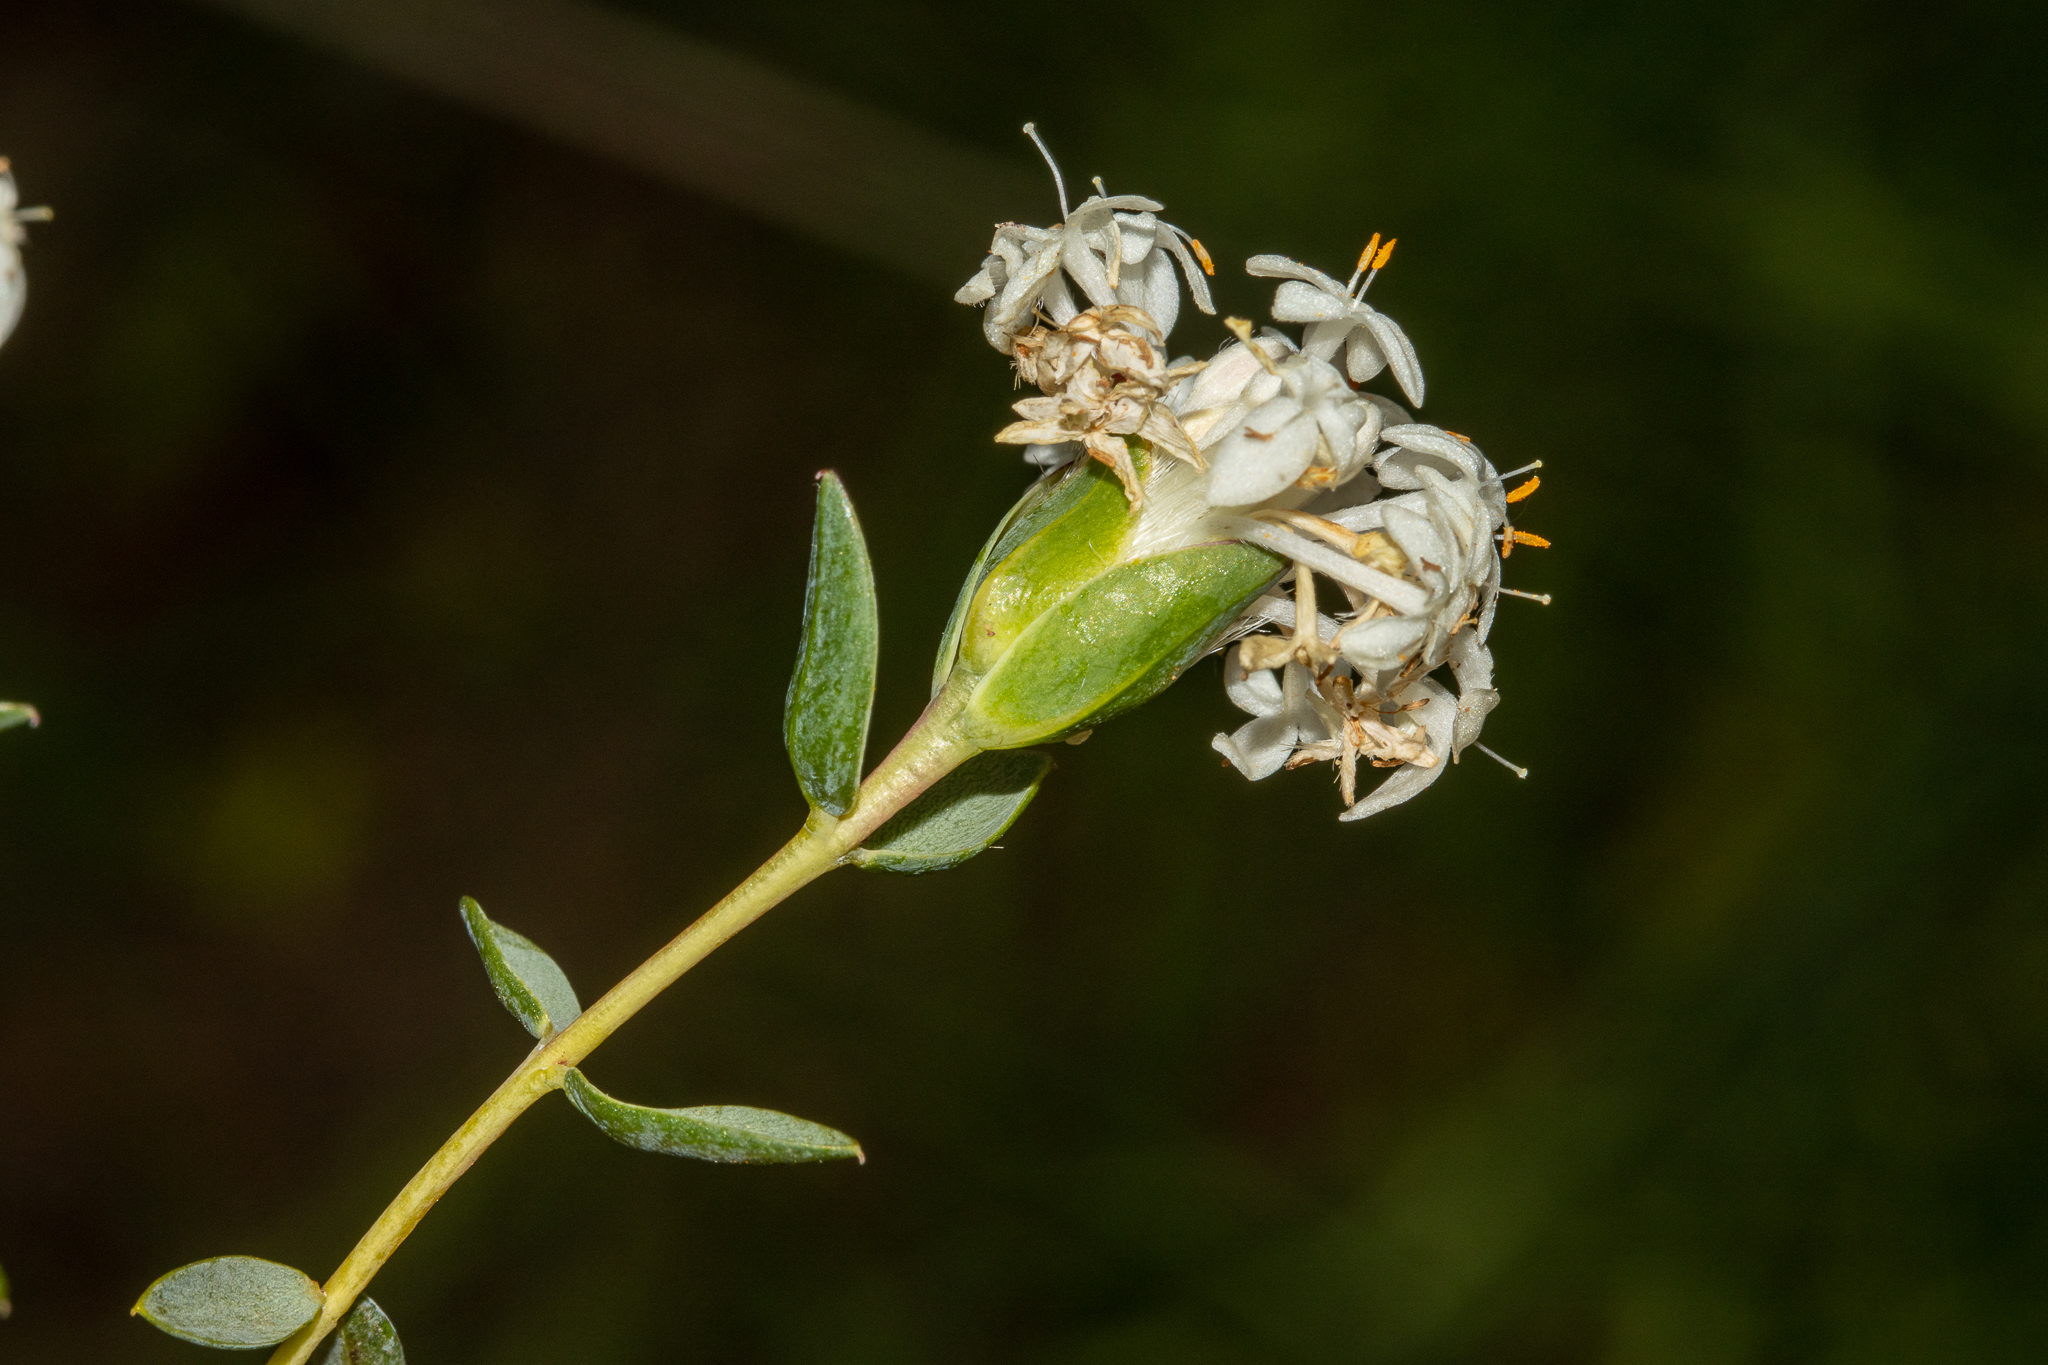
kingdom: Plantae
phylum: Tracheophyta
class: Magnoliopsida
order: Malvales
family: Thymelaeaceae
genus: Pimelea
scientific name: Pimelea glauca
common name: Smooth riceflower
